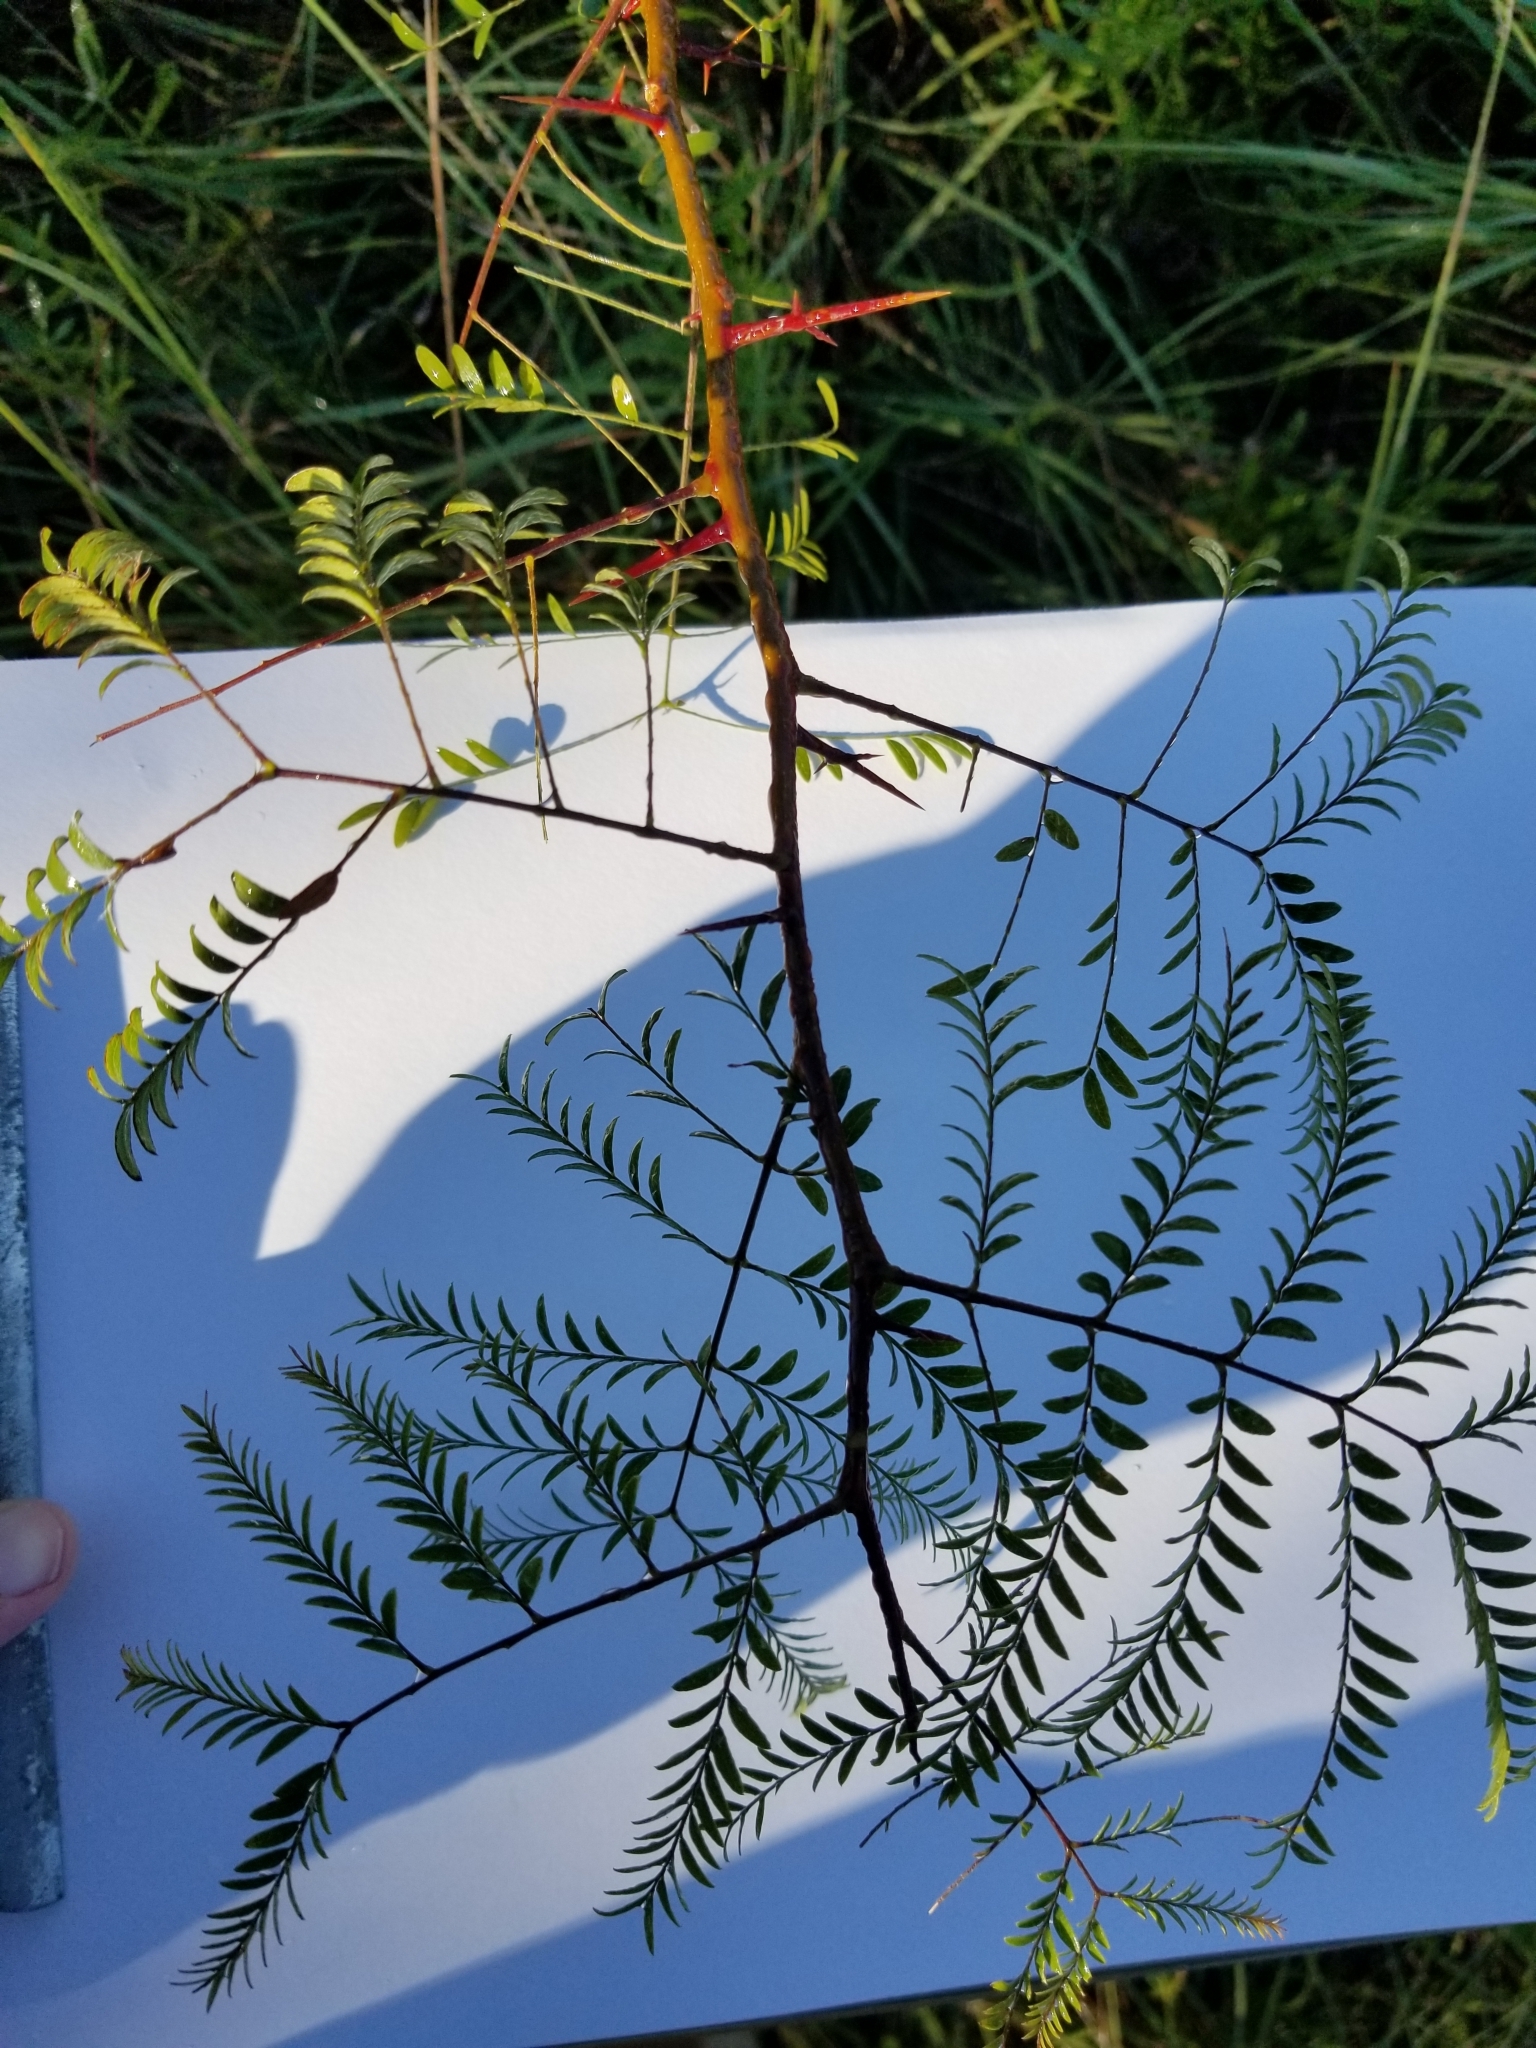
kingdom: Plantae
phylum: Tracheophyta
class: Magnoliopsida
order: Fabales
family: Fabaceae
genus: Gleditsia
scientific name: Gleditsia triacanthos
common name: Common honeylocust
